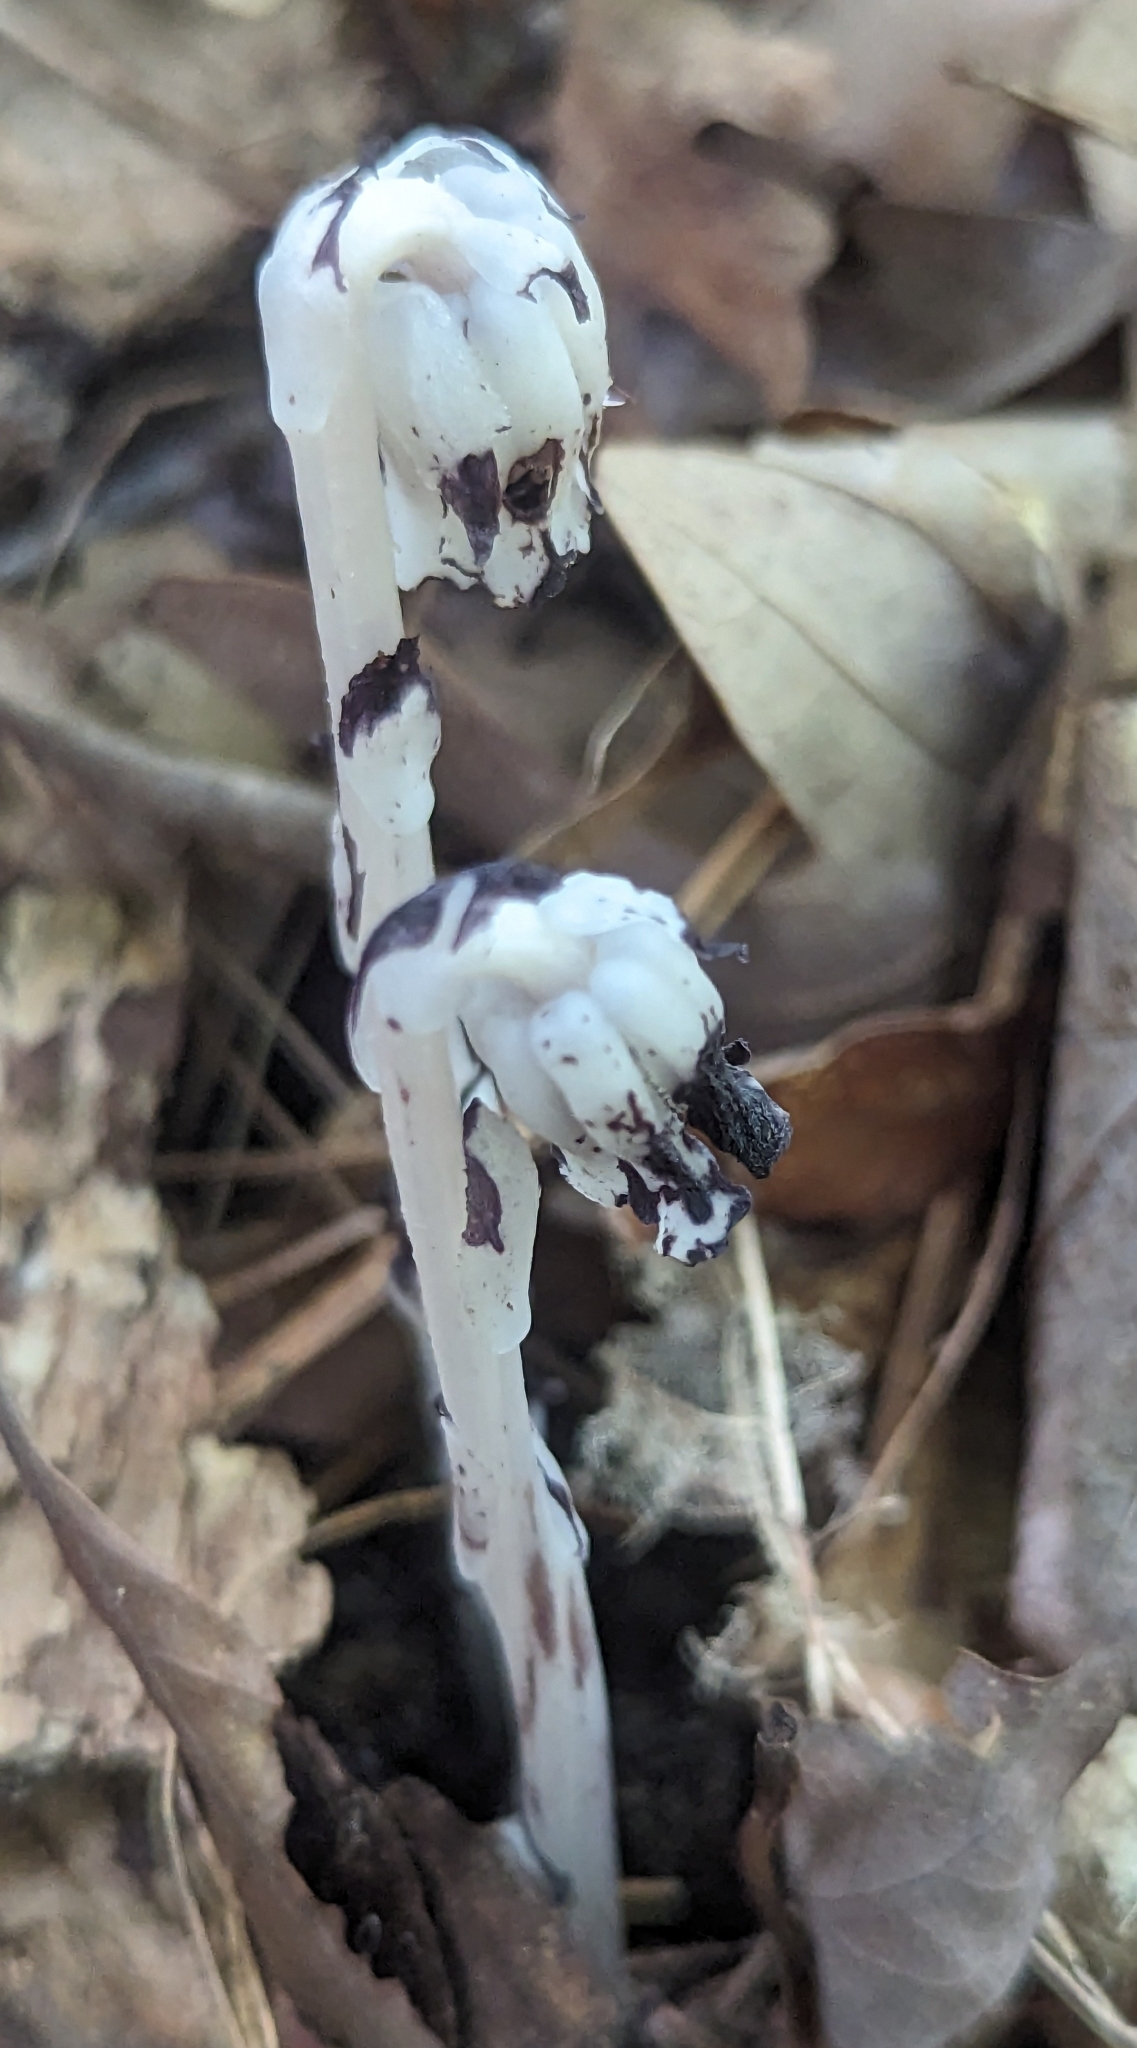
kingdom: Plantae
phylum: Tracheophyta
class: Magnoliopsida
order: Ericales
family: Ericaceae
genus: Monotropa
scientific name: Monotropa uniflora
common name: Convulsion root
